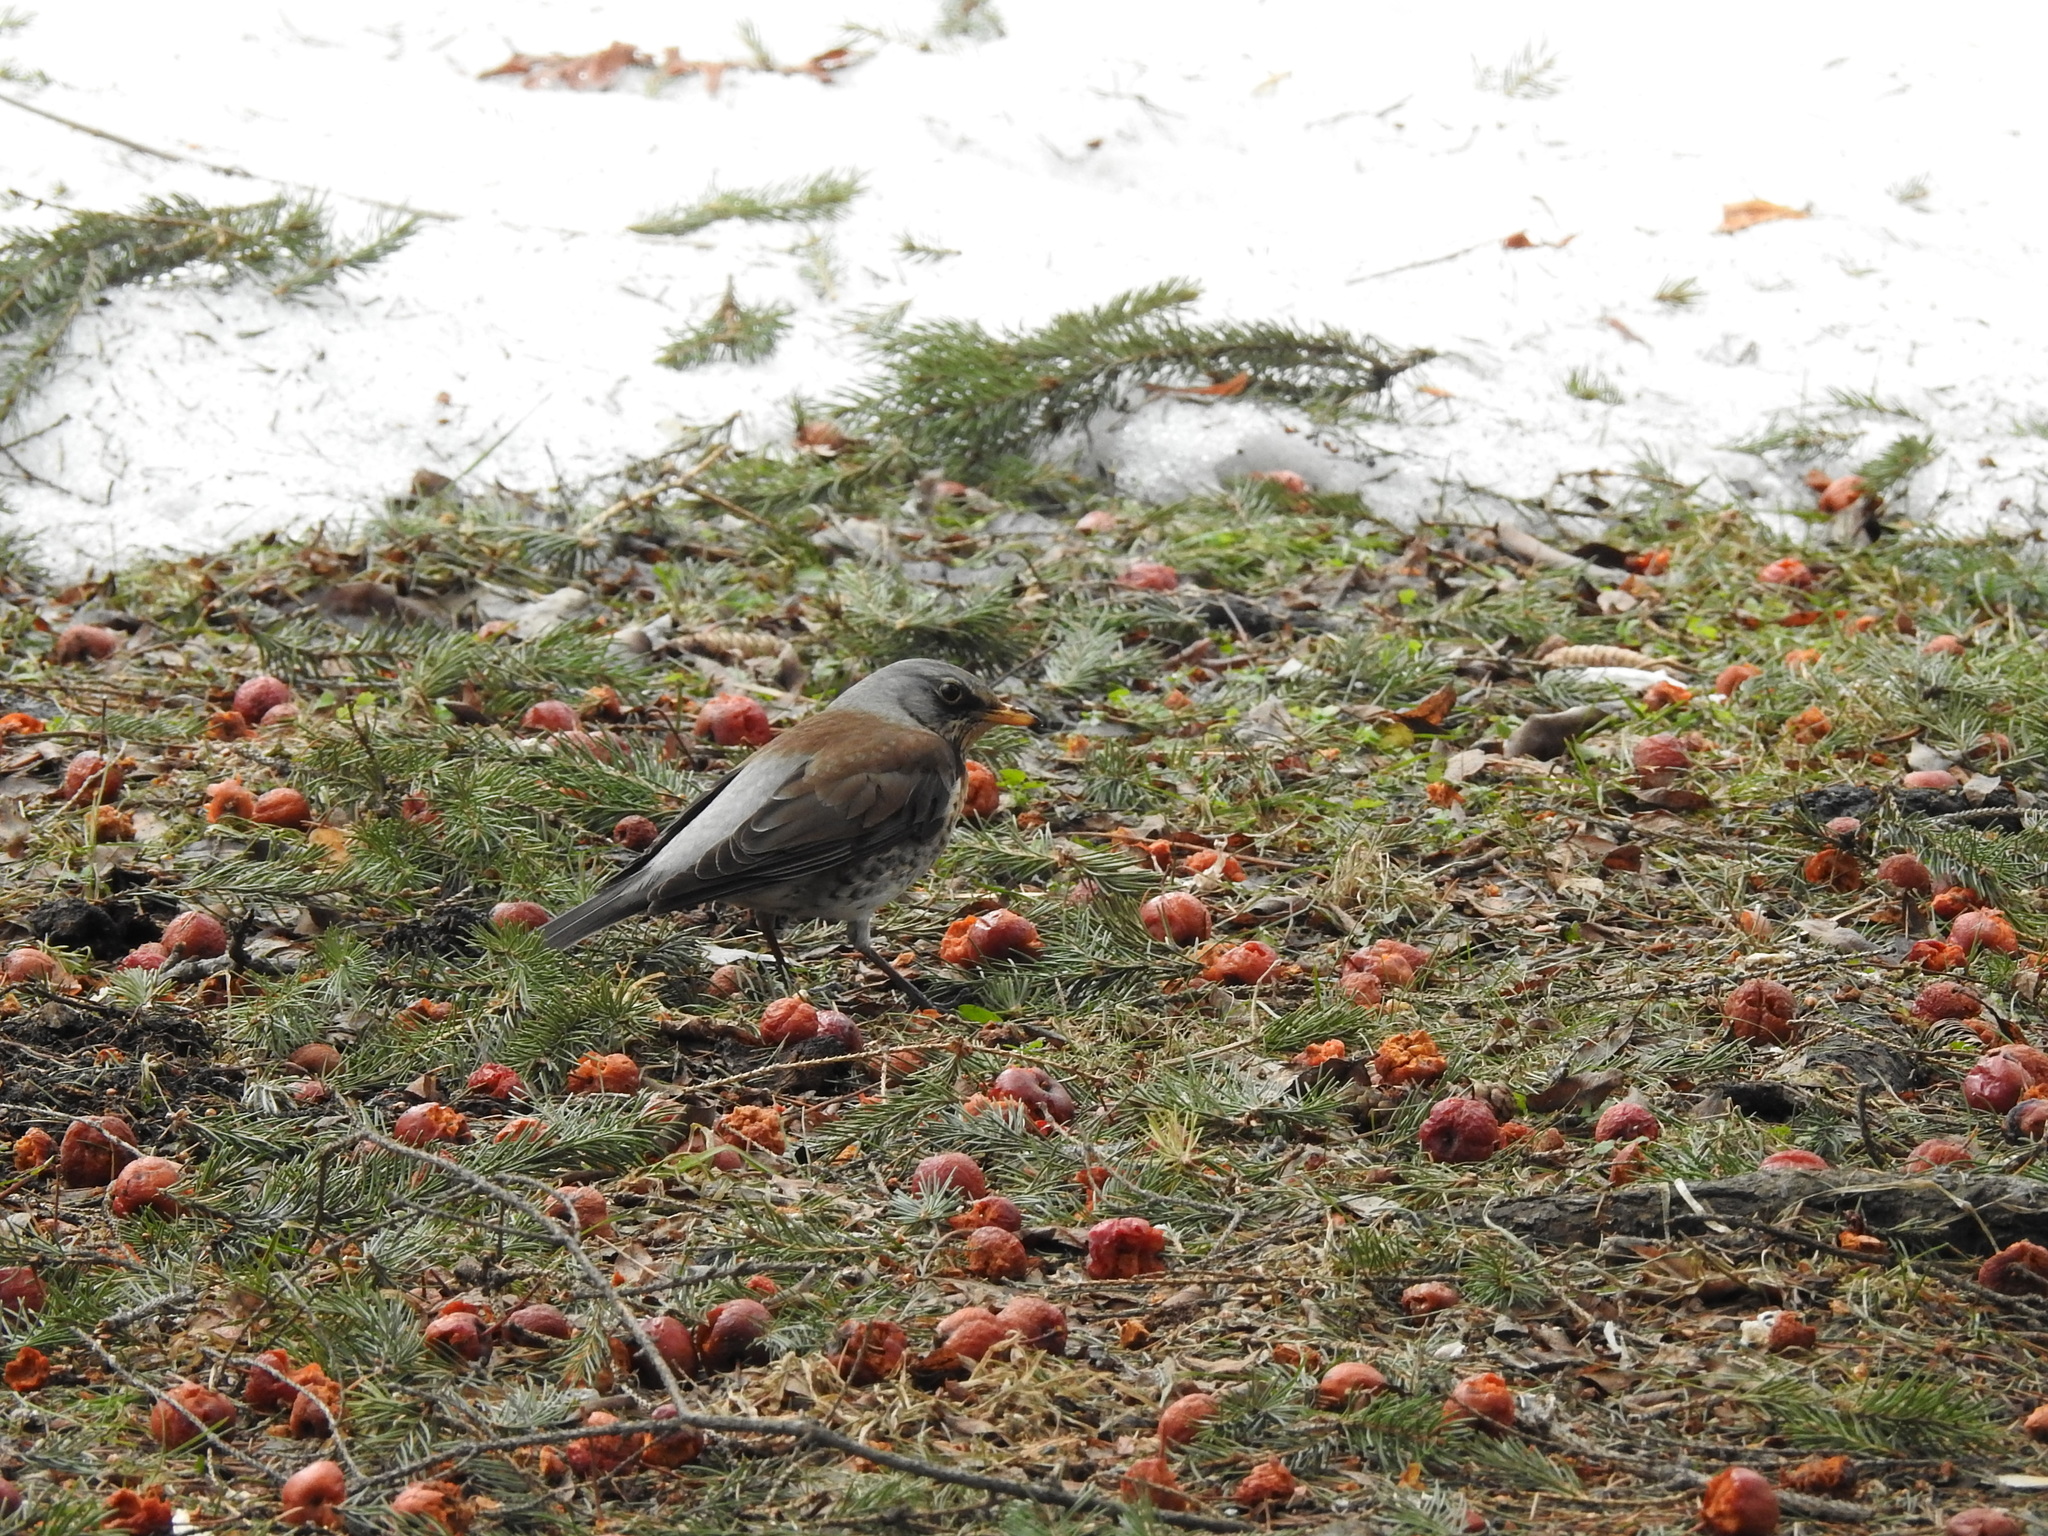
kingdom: Animalia
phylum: Chordata
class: Aves
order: Passeriformes
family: Turdidae
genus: Turdus
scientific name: Turdus pilaris
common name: Fieldfare
